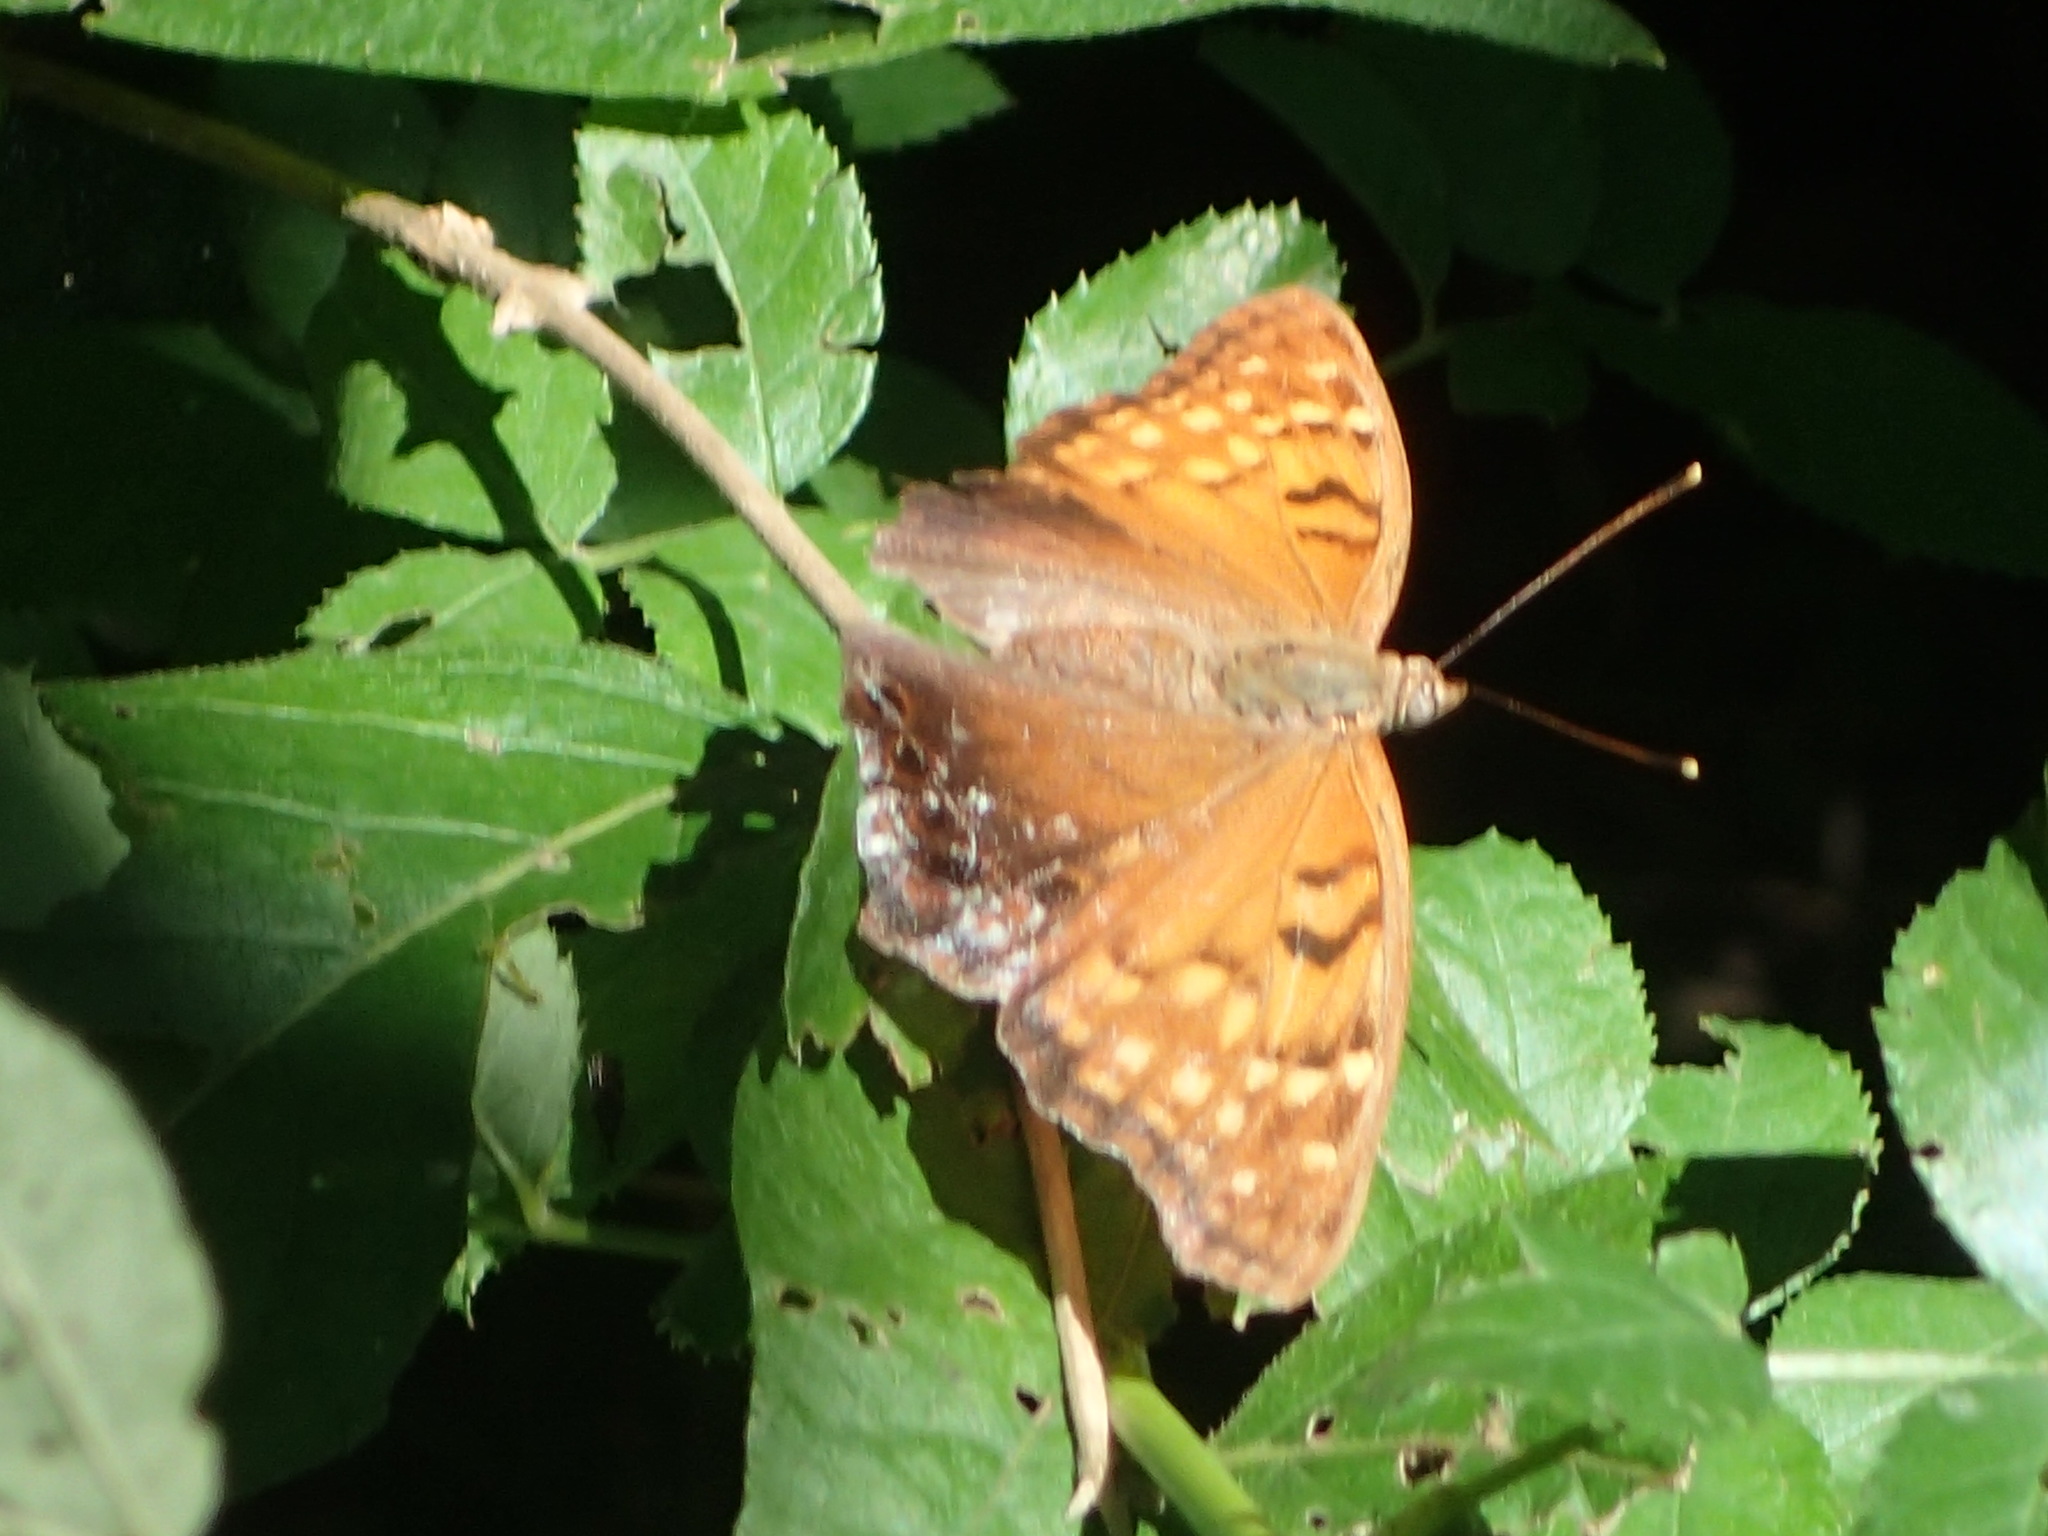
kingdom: Animalia
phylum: Arthropoda
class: Insecta
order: Lepidoptera
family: Nymphalidae
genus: Asterocampa
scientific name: Asterocampa clyton
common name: Tawny emperor
